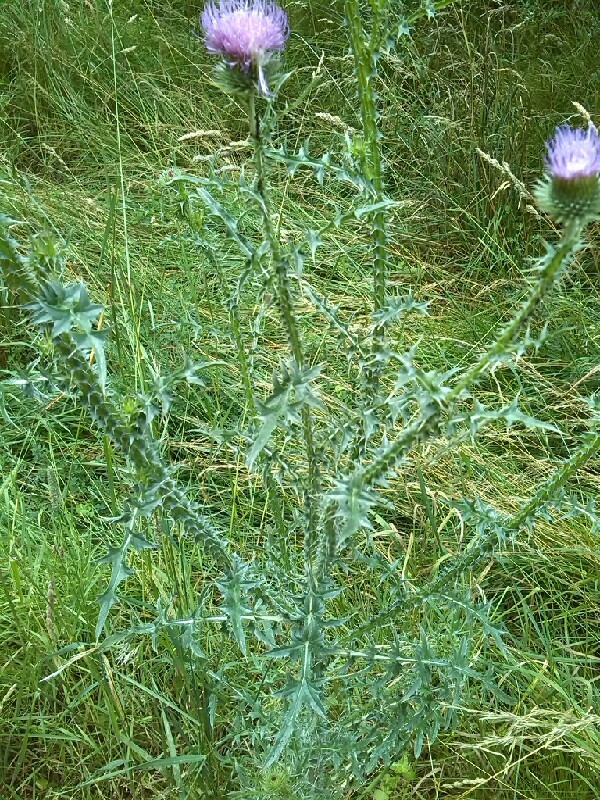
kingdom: Plantae
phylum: Tracheophyta
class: Magnoliopsida
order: Asterales
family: Asteraceae
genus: Carduus
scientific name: Carduus acanthoides
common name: Plumeless thistle
